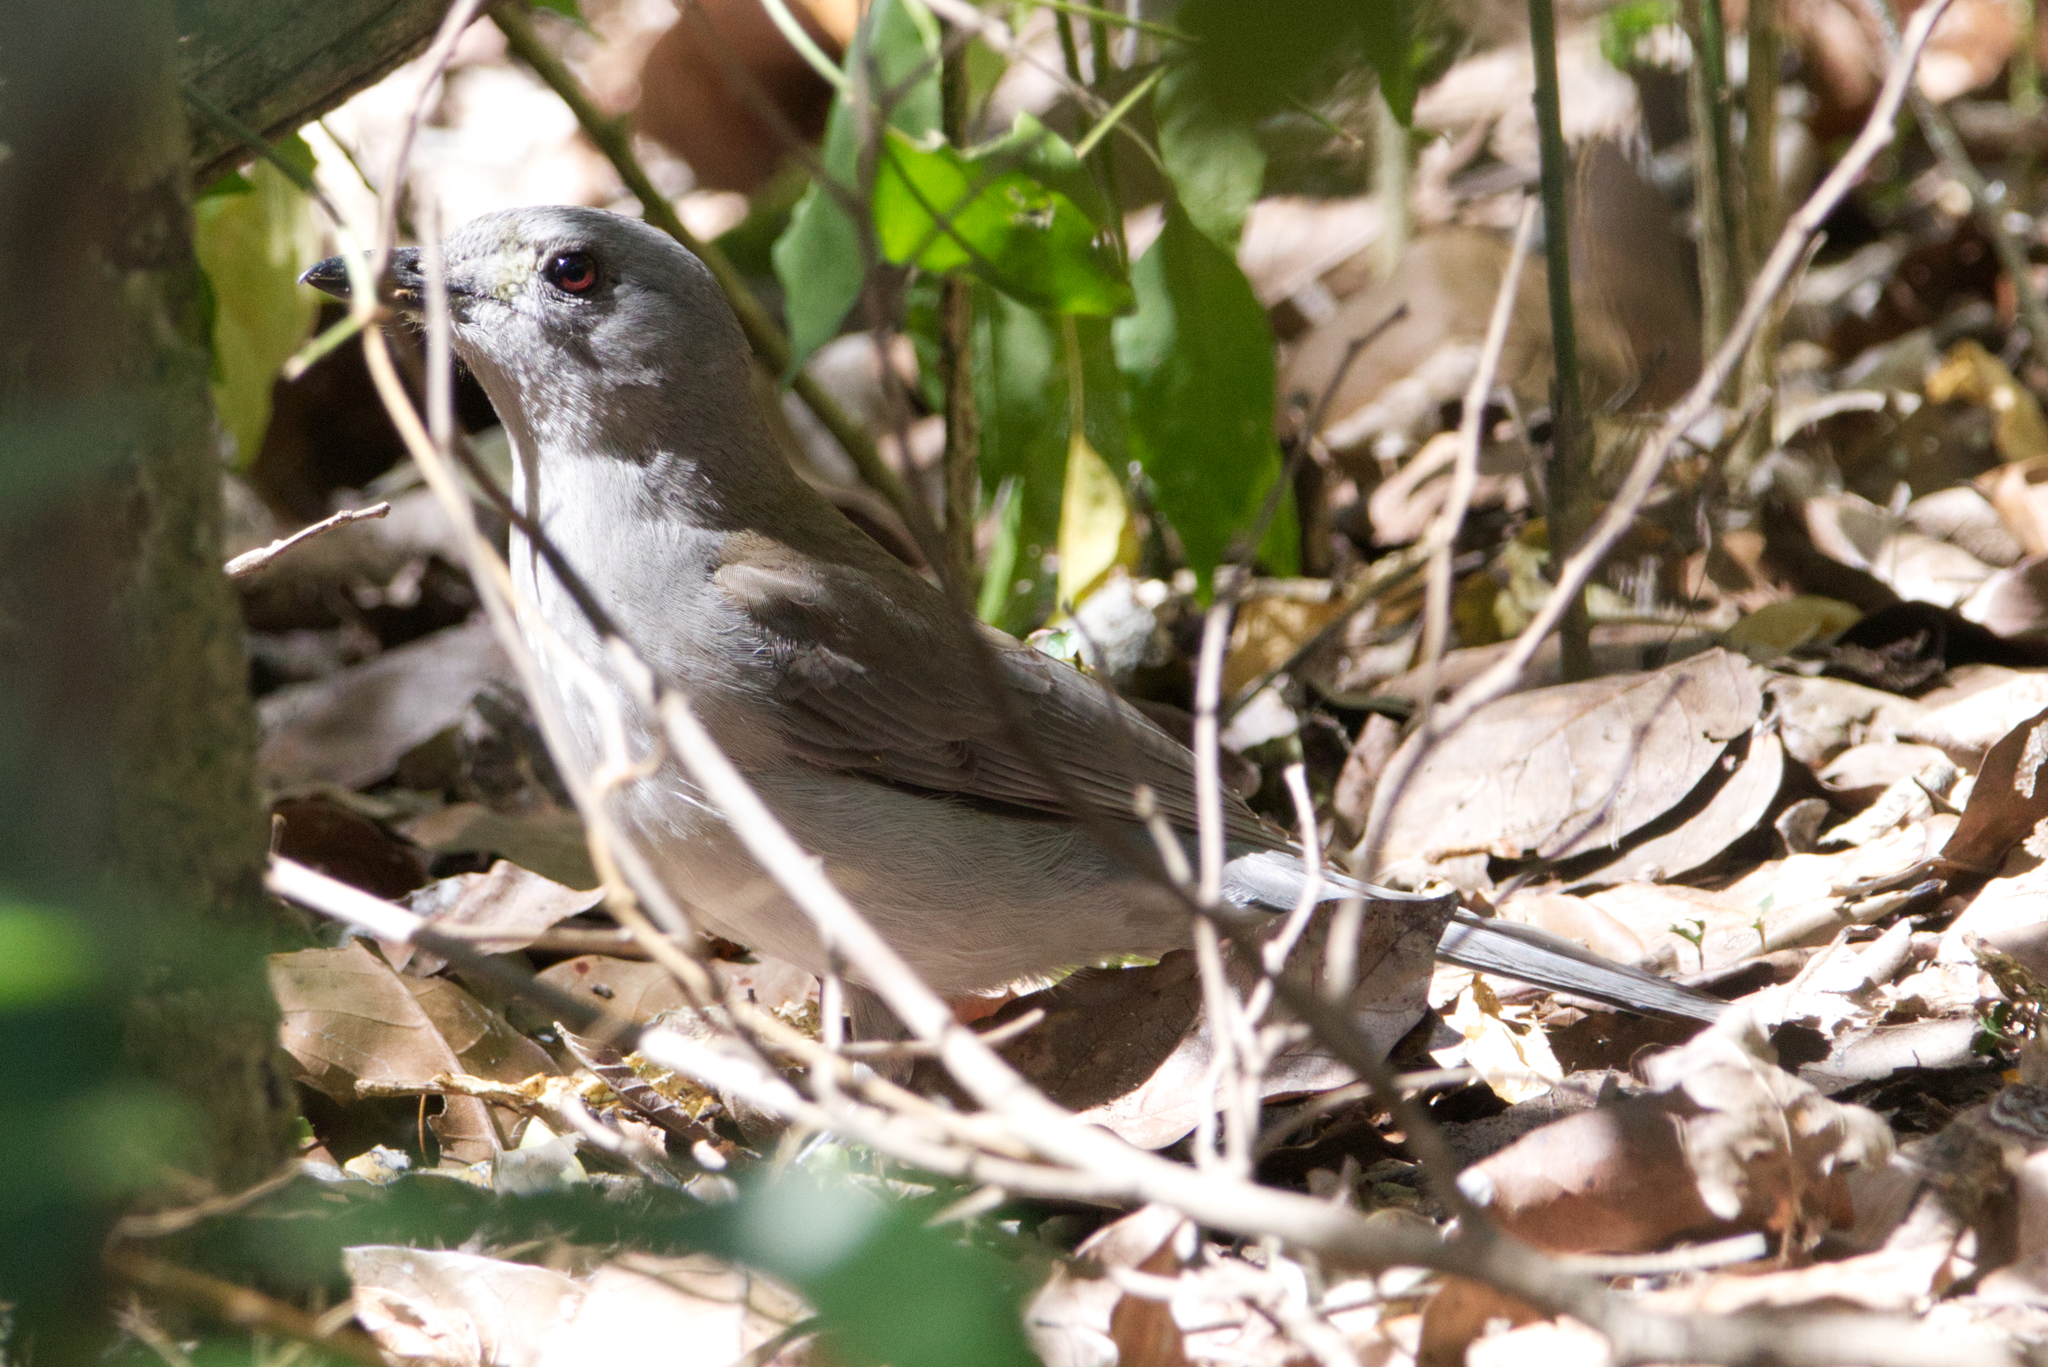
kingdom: Animalia
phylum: Chordata
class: Aves
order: Passeriformes
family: Pachycephalidae
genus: Colluricincla
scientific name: Colluricincla harmonica
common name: Grey shrikethrush
